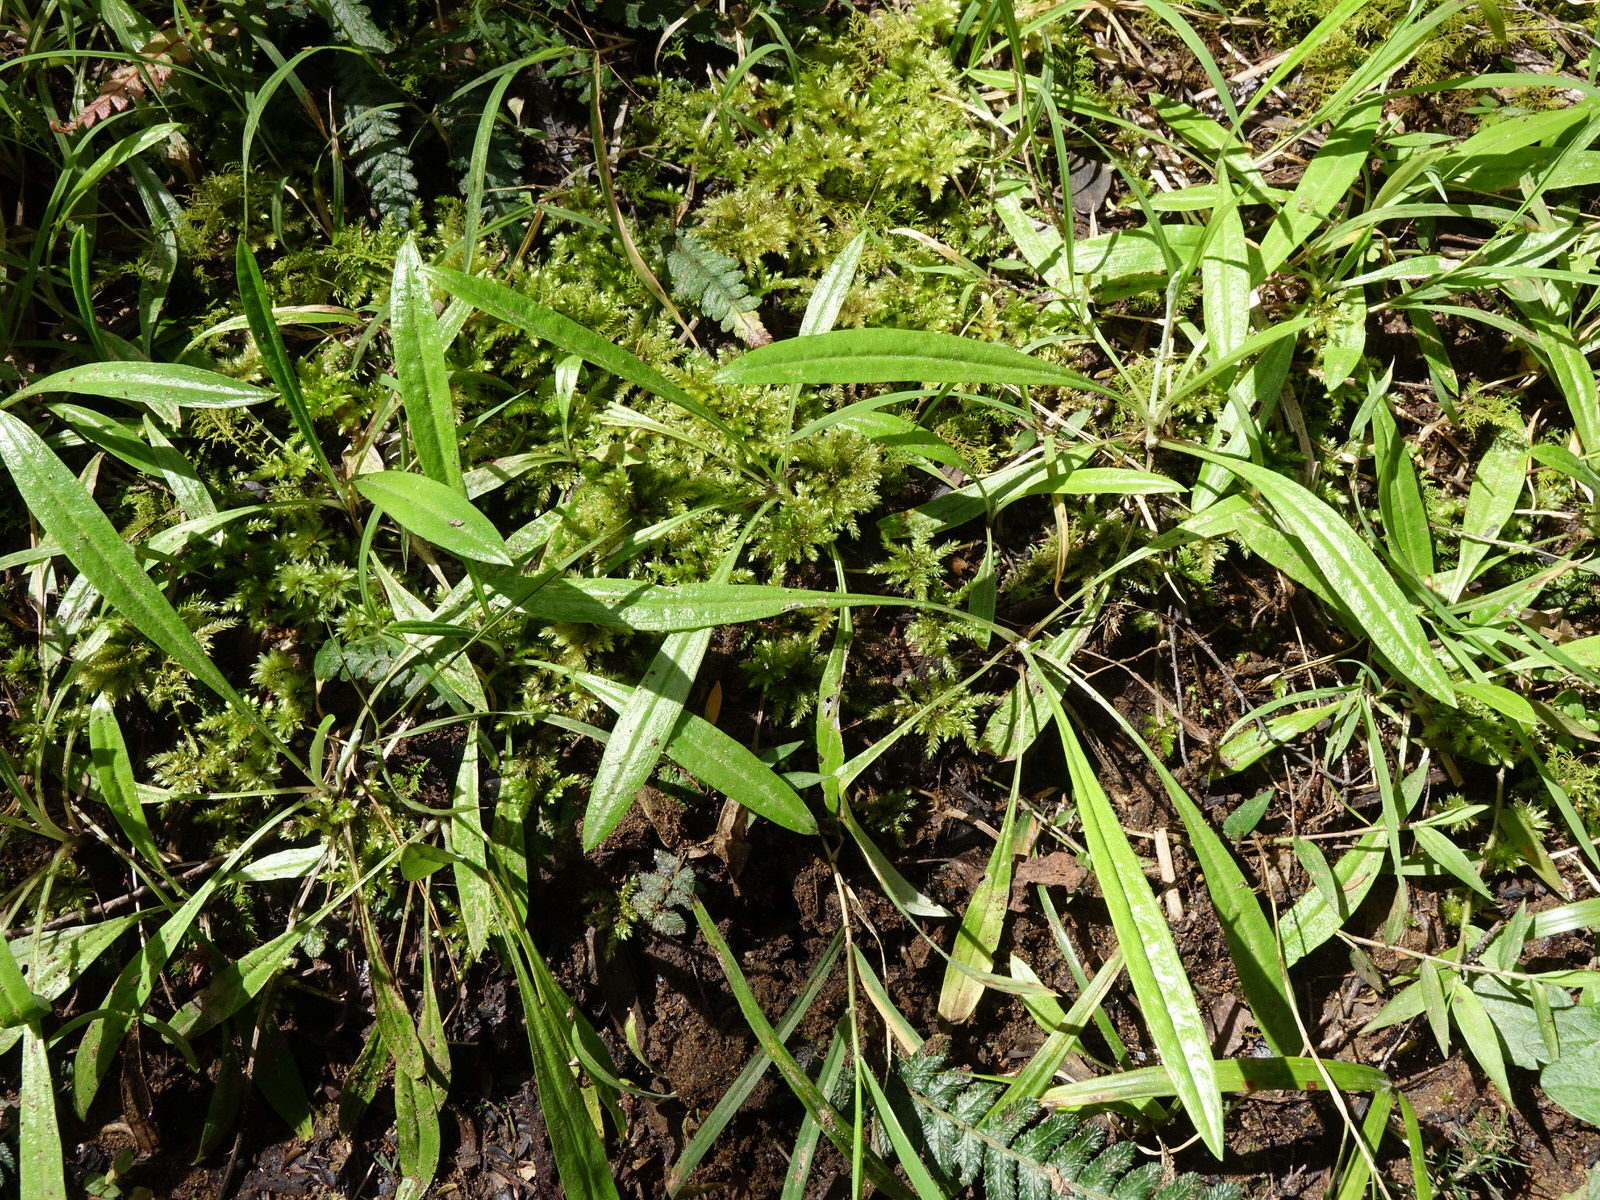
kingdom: Plantae
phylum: Tracheophyta
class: Magnoliopsida
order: Asterales
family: Asteraceae
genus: Euchiton
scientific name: Euchiton japonicus
